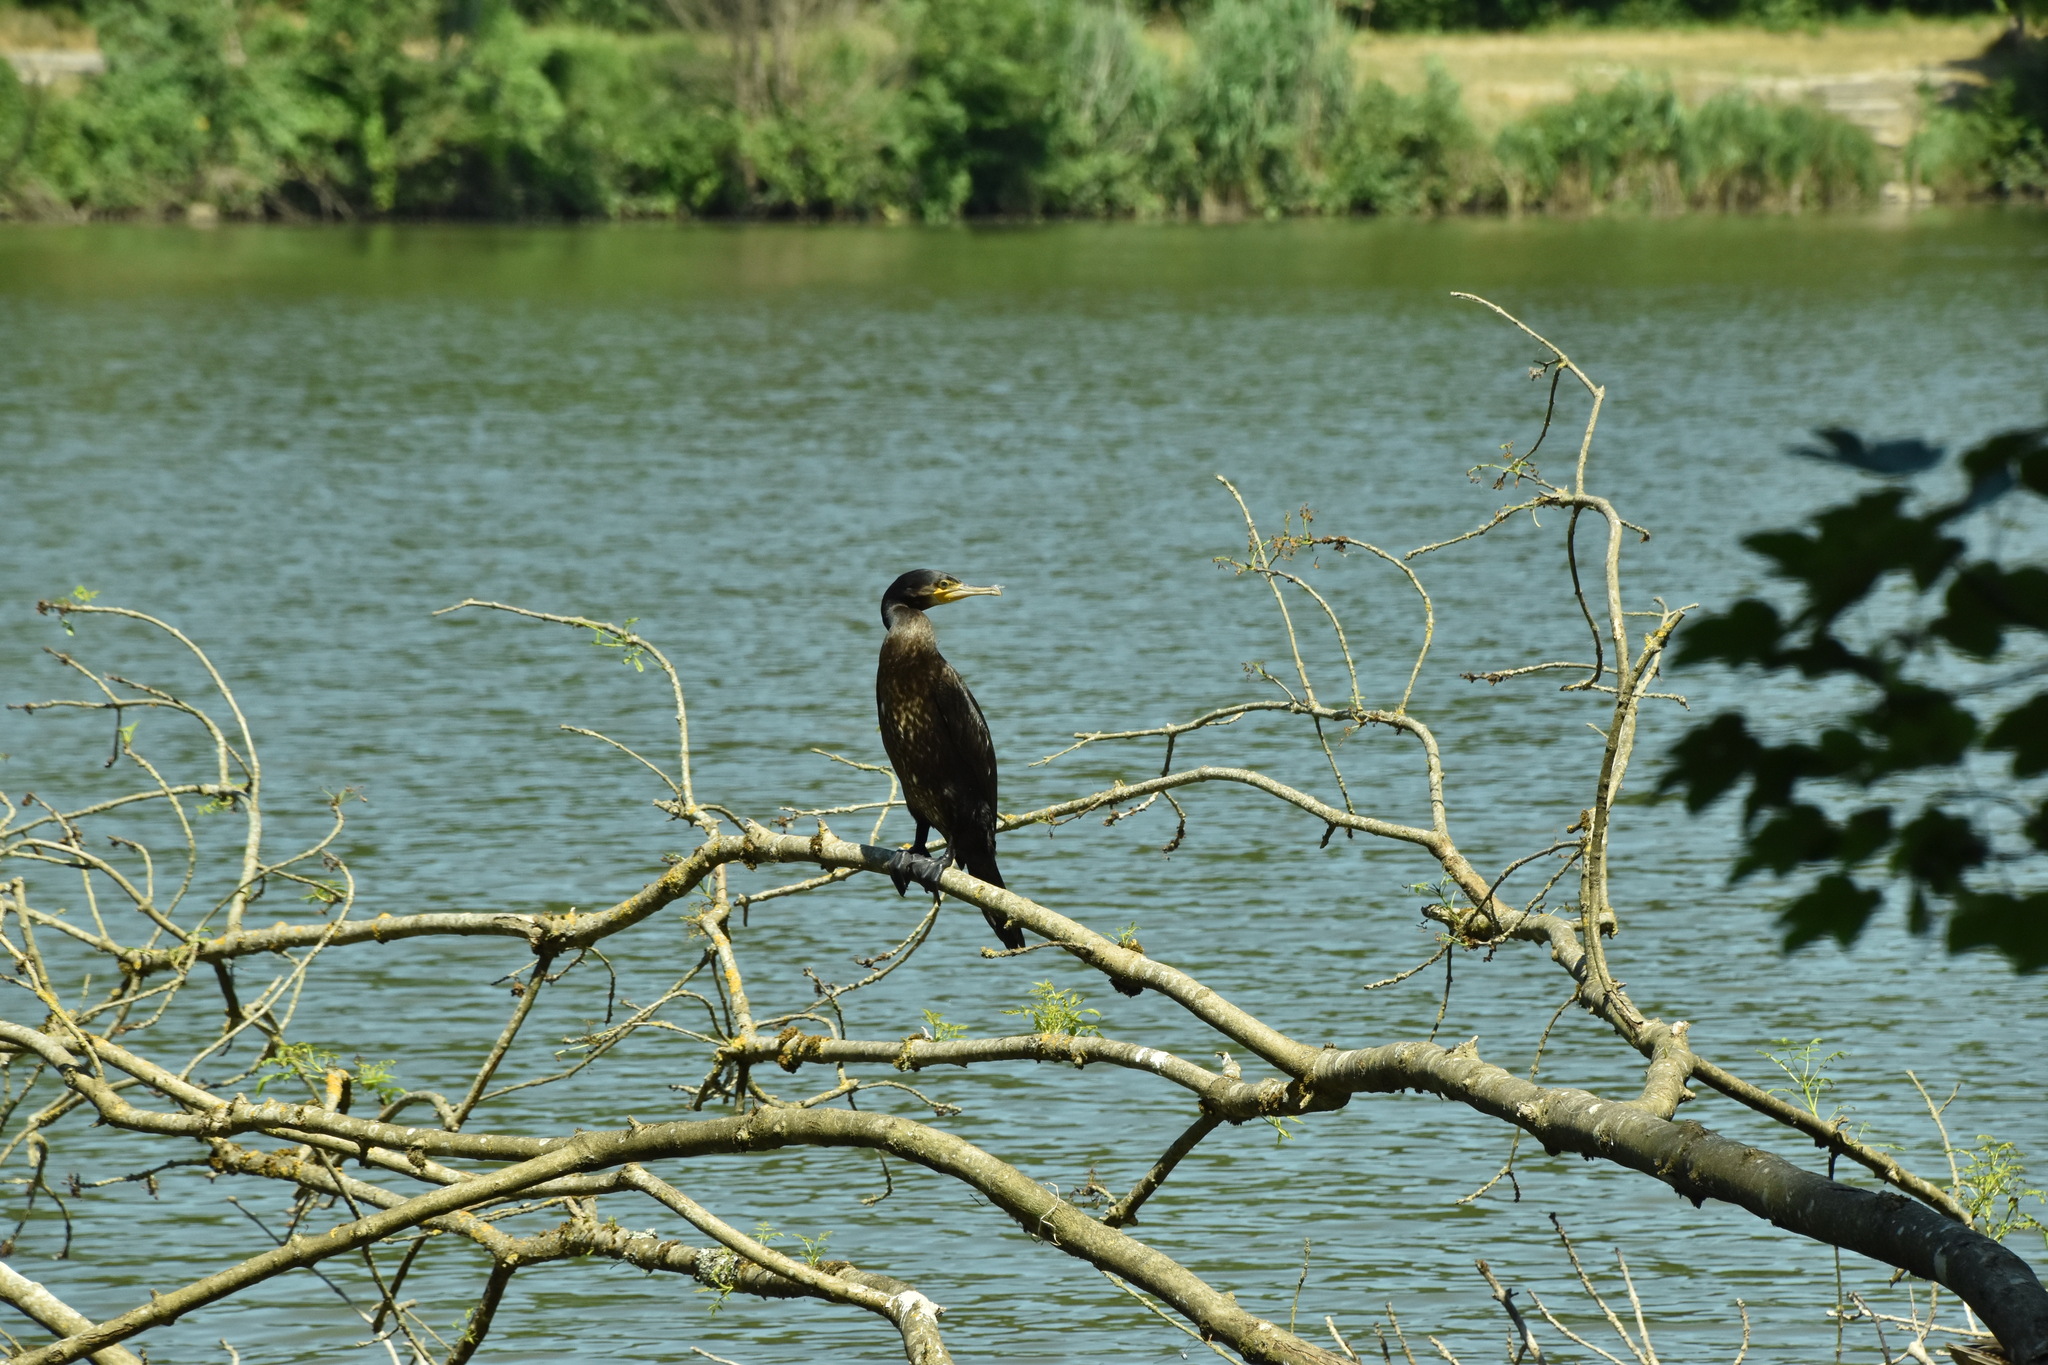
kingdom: Animalia
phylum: Chordata
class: Aves
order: Suliformes
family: Phalacrocoracidae
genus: Phalacrocorax
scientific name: Phalacrocorax carbo
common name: Great cormorant
